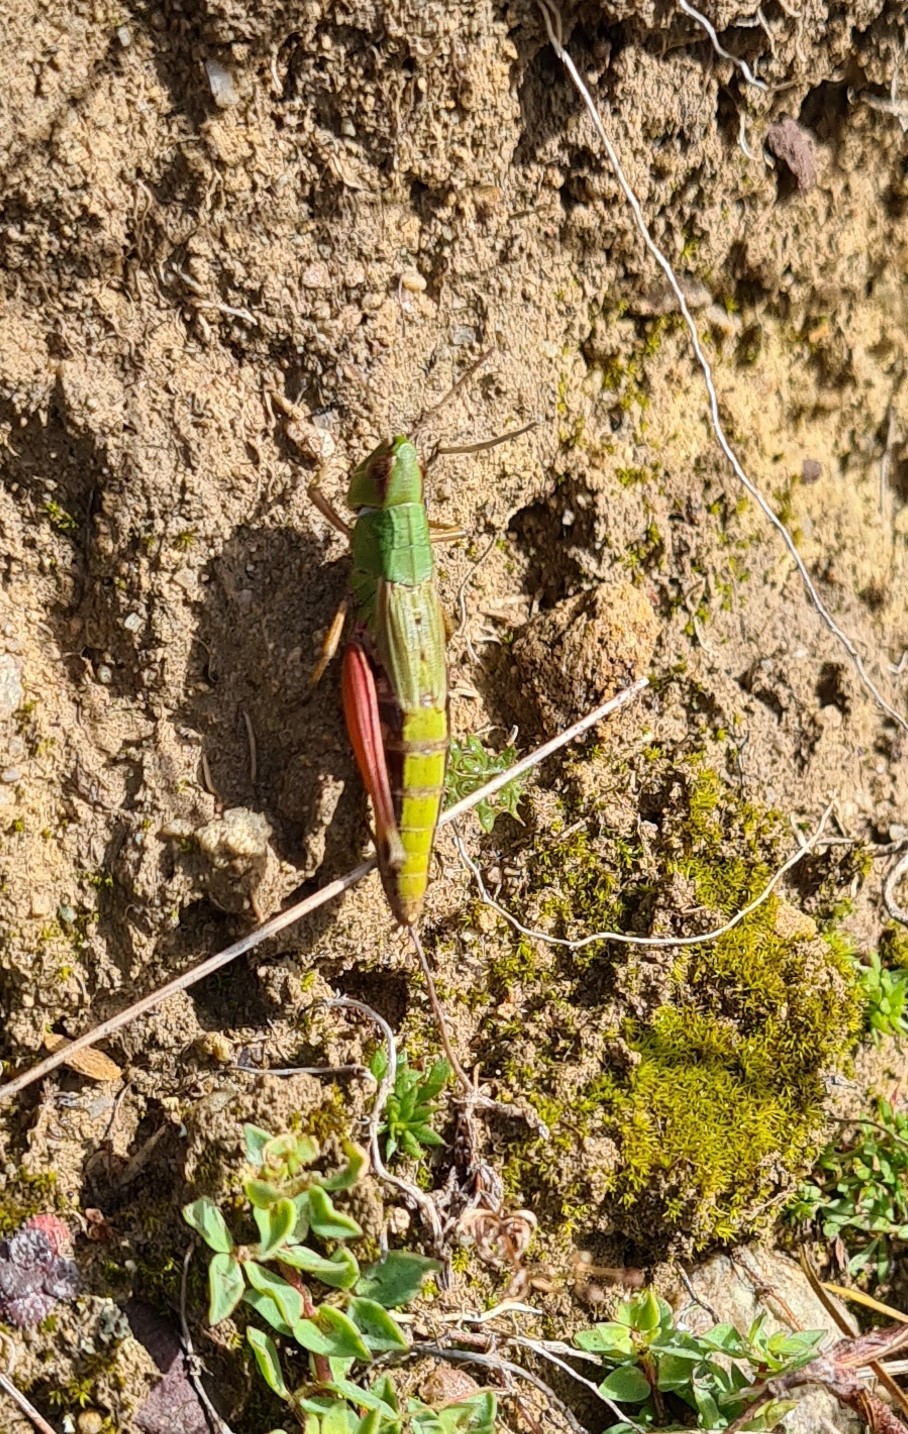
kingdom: Animalia
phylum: Arthropoda
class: Insecta
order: Orthoptera
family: Acrididae
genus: Pseudochorthippus
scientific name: Pseudochorthippus parallelus
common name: Meadow grasshopper
